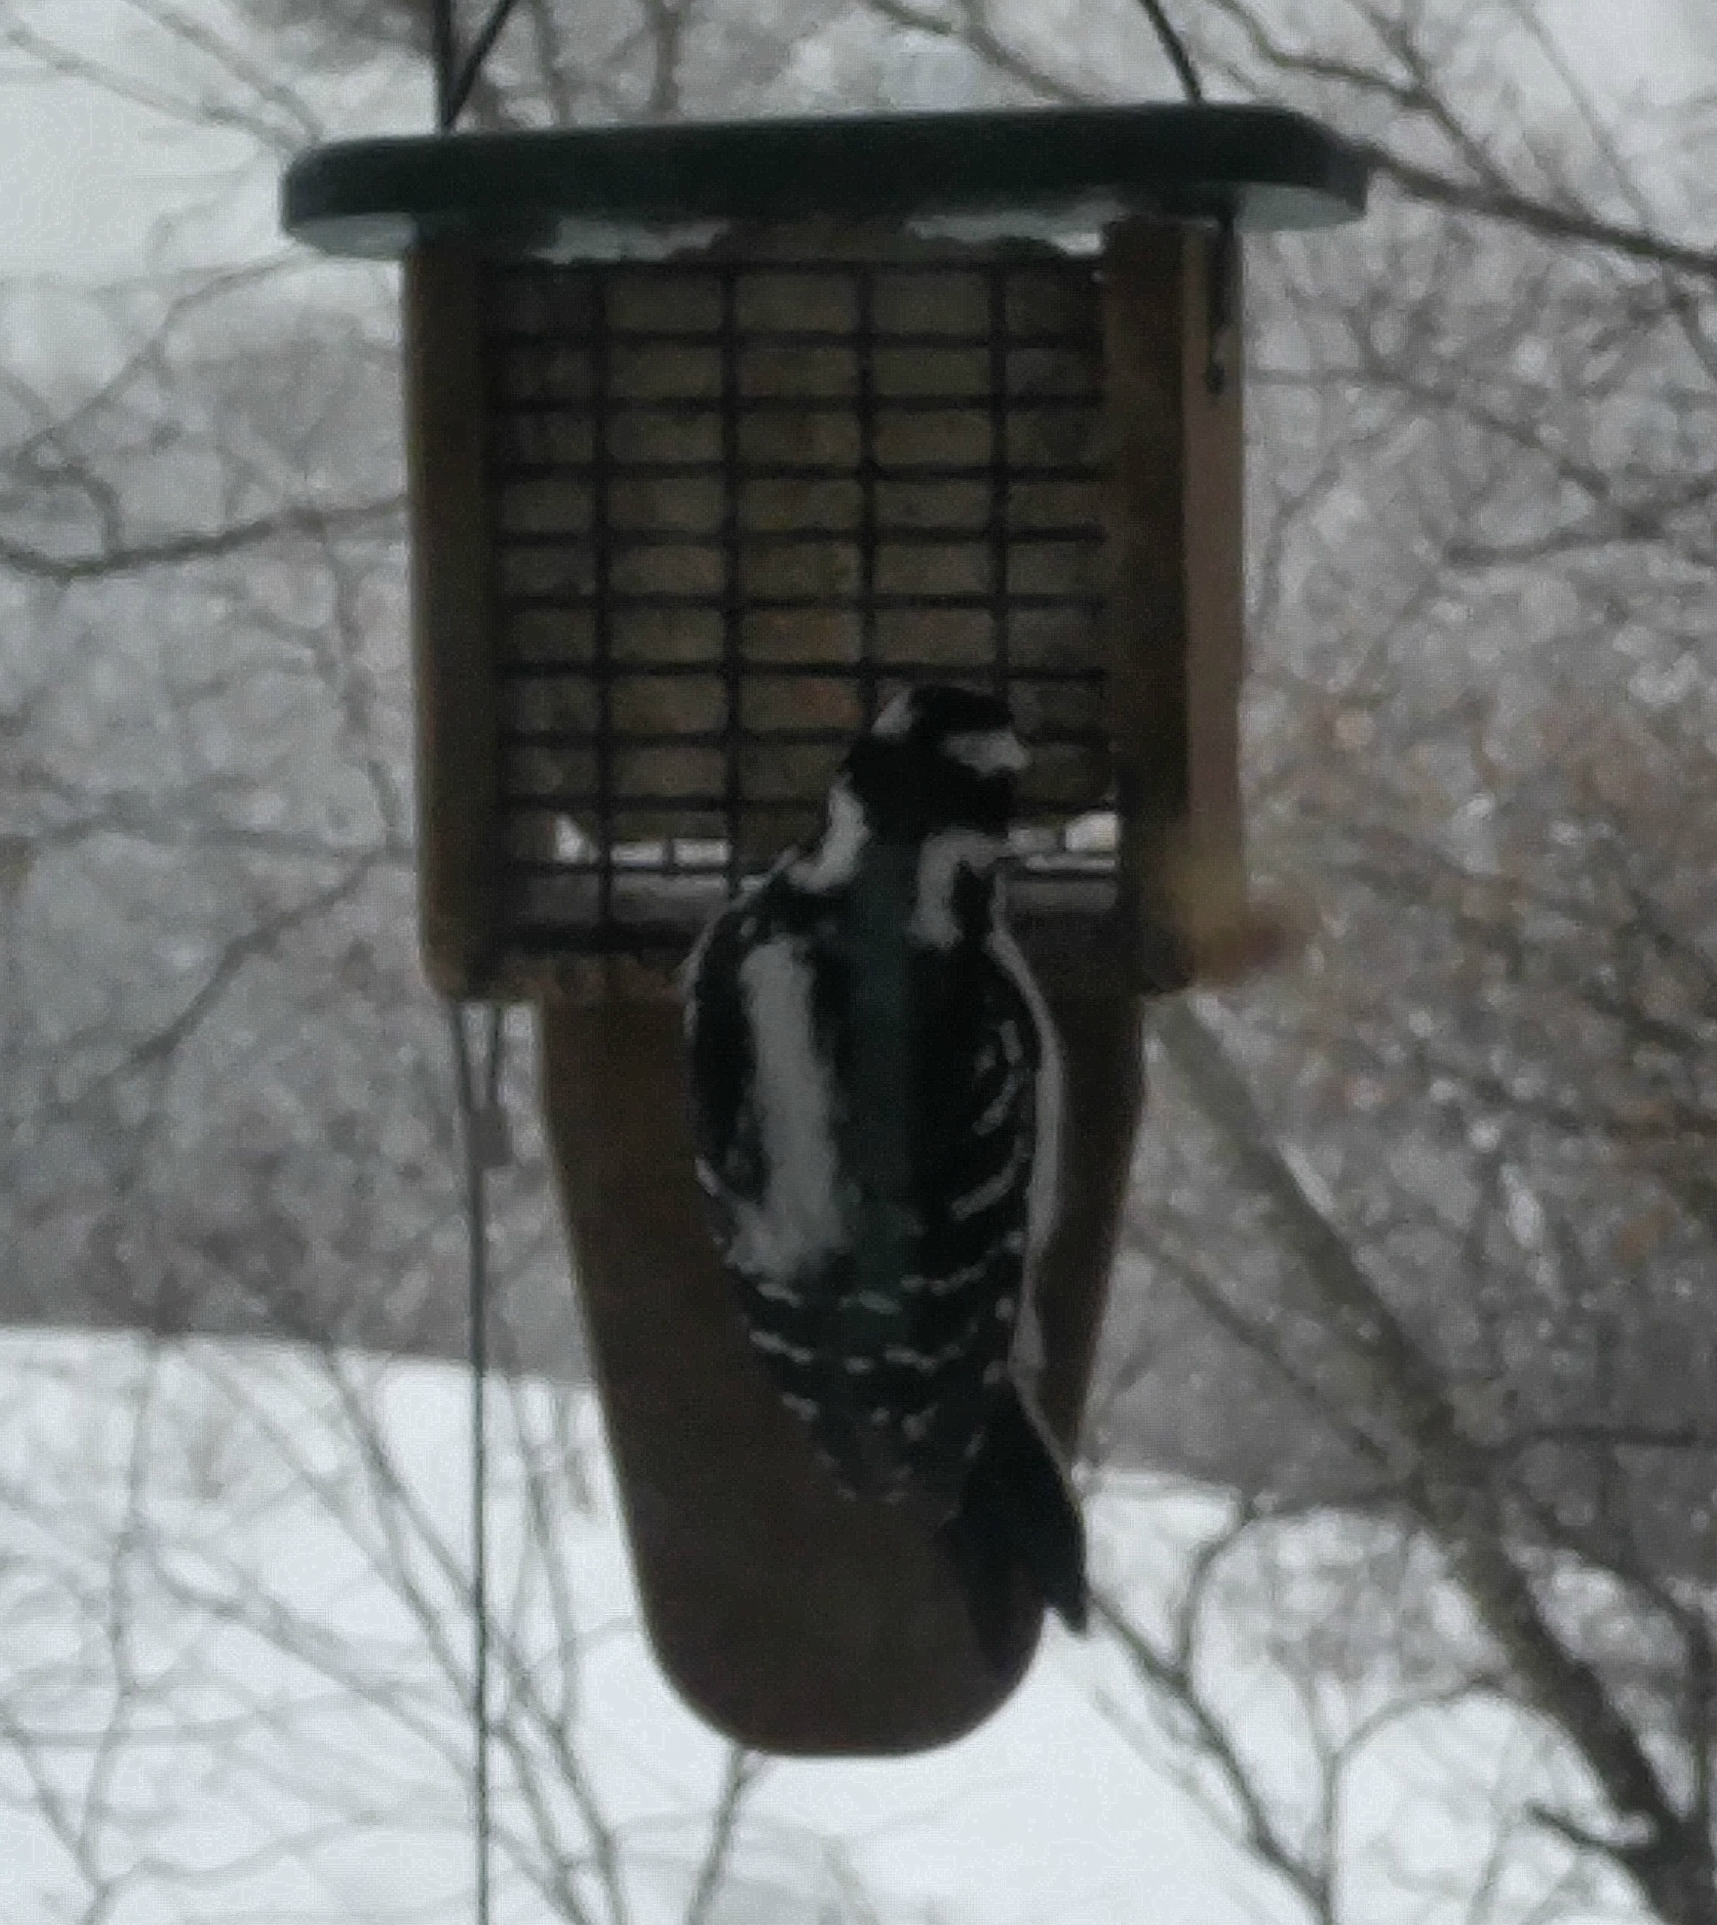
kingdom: Animalia
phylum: Chordata
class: Aves
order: Piciformes
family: Picidae
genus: Leuconotopicus
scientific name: Leuconotopicus villosus
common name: Hairy woodpecker
